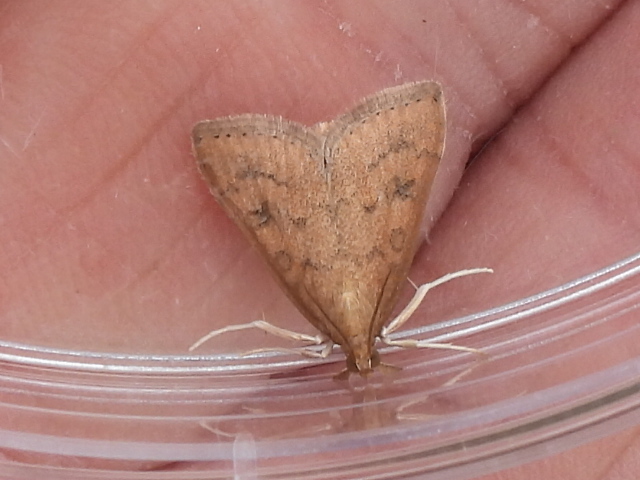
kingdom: Animalia
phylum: Arthropoda
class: Insecta
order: Lepidoptera
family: Crambidae
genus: Udea
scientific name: Udea rubigalis
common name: Celery leaftier moth
